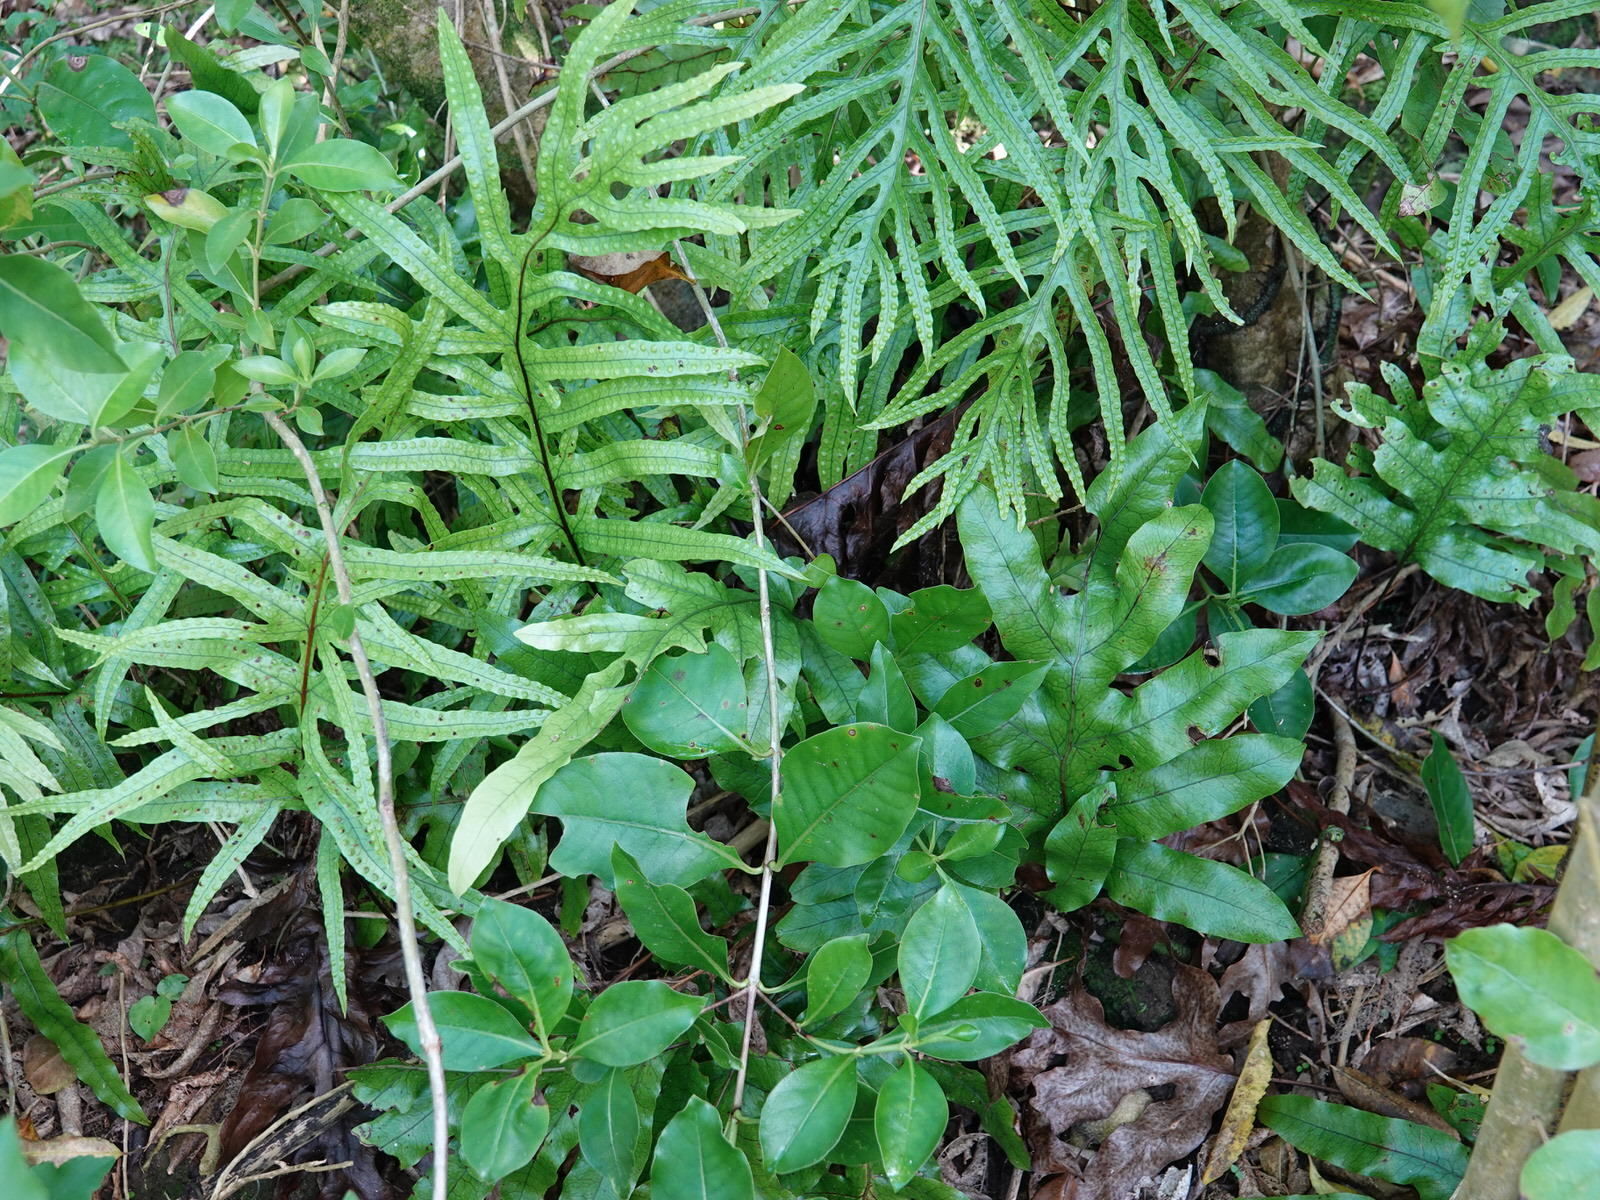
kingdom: Plantae
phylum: Tracheophyta
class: Polypodiopsida
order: Polypodiales
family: Polypodiaceae
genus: Lecanopteris
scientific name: Lecanopteris pustulata
